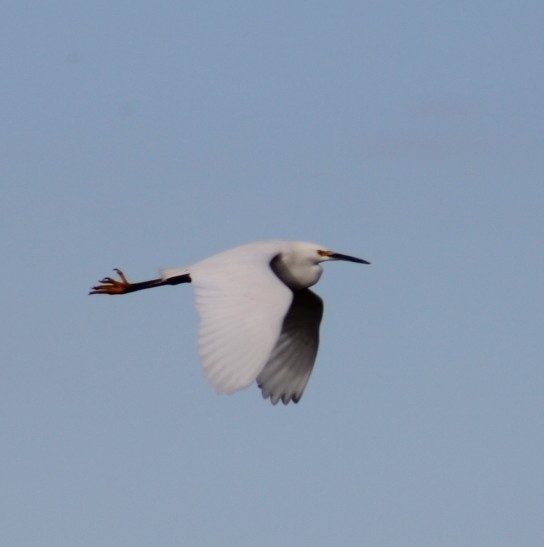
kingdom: Animalia
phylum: Chordata
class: Aves
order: Pelecaniformes
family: Ardeidae
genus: Egretta
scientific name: Egretta thula
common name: Snowy egret
